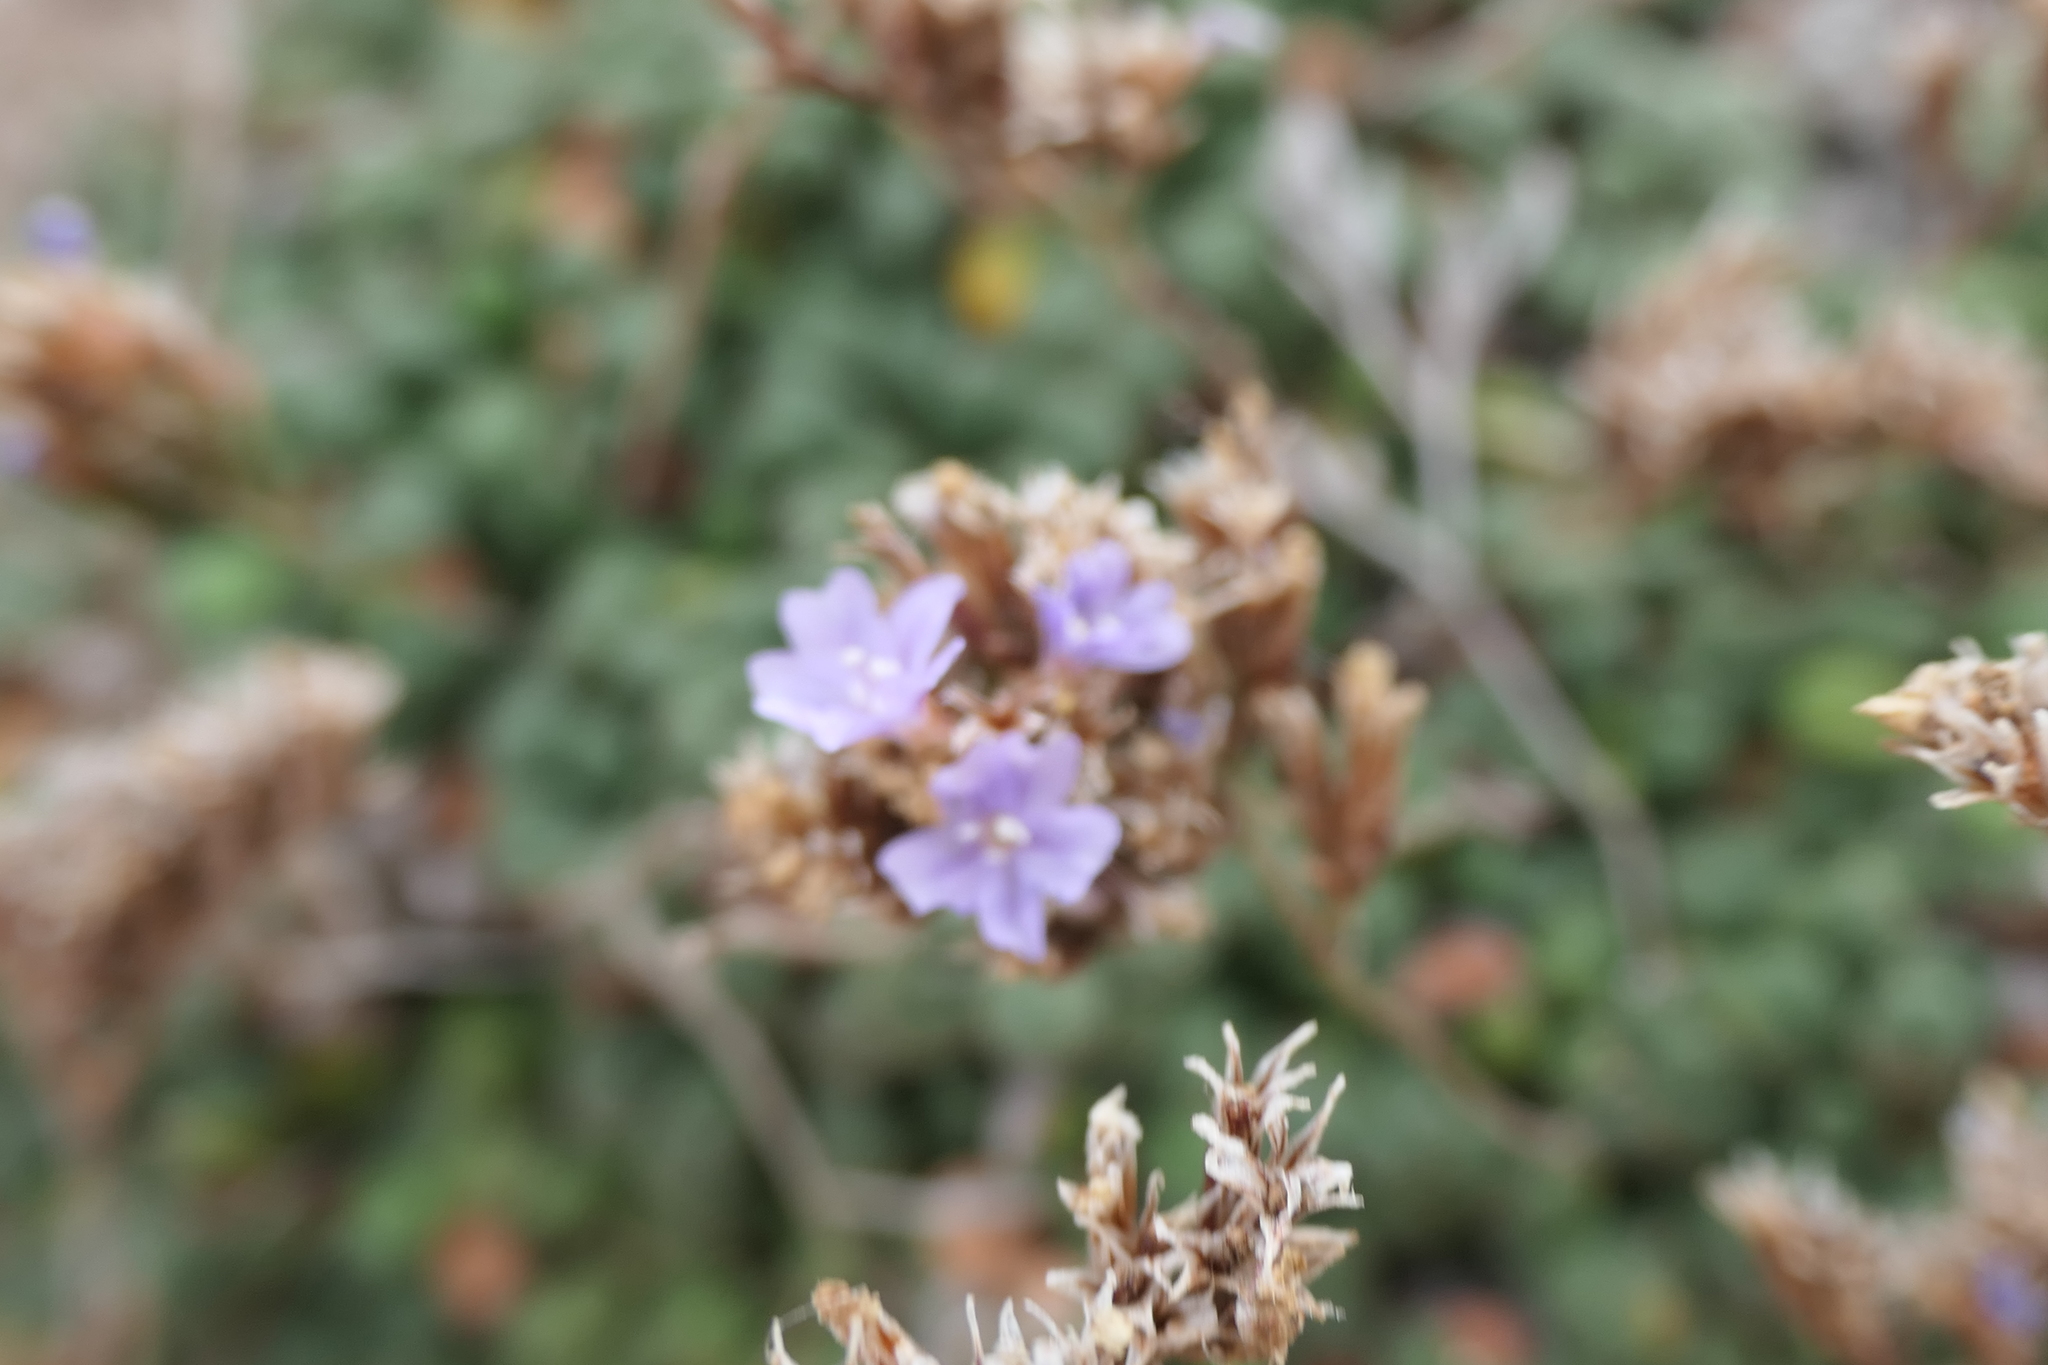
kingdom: Plantae
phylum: Tracheophyta
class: Magnoliopsida
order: Caryophyllales
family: Plumbaginaceae
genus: Limonium
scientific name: Limonium minutum
